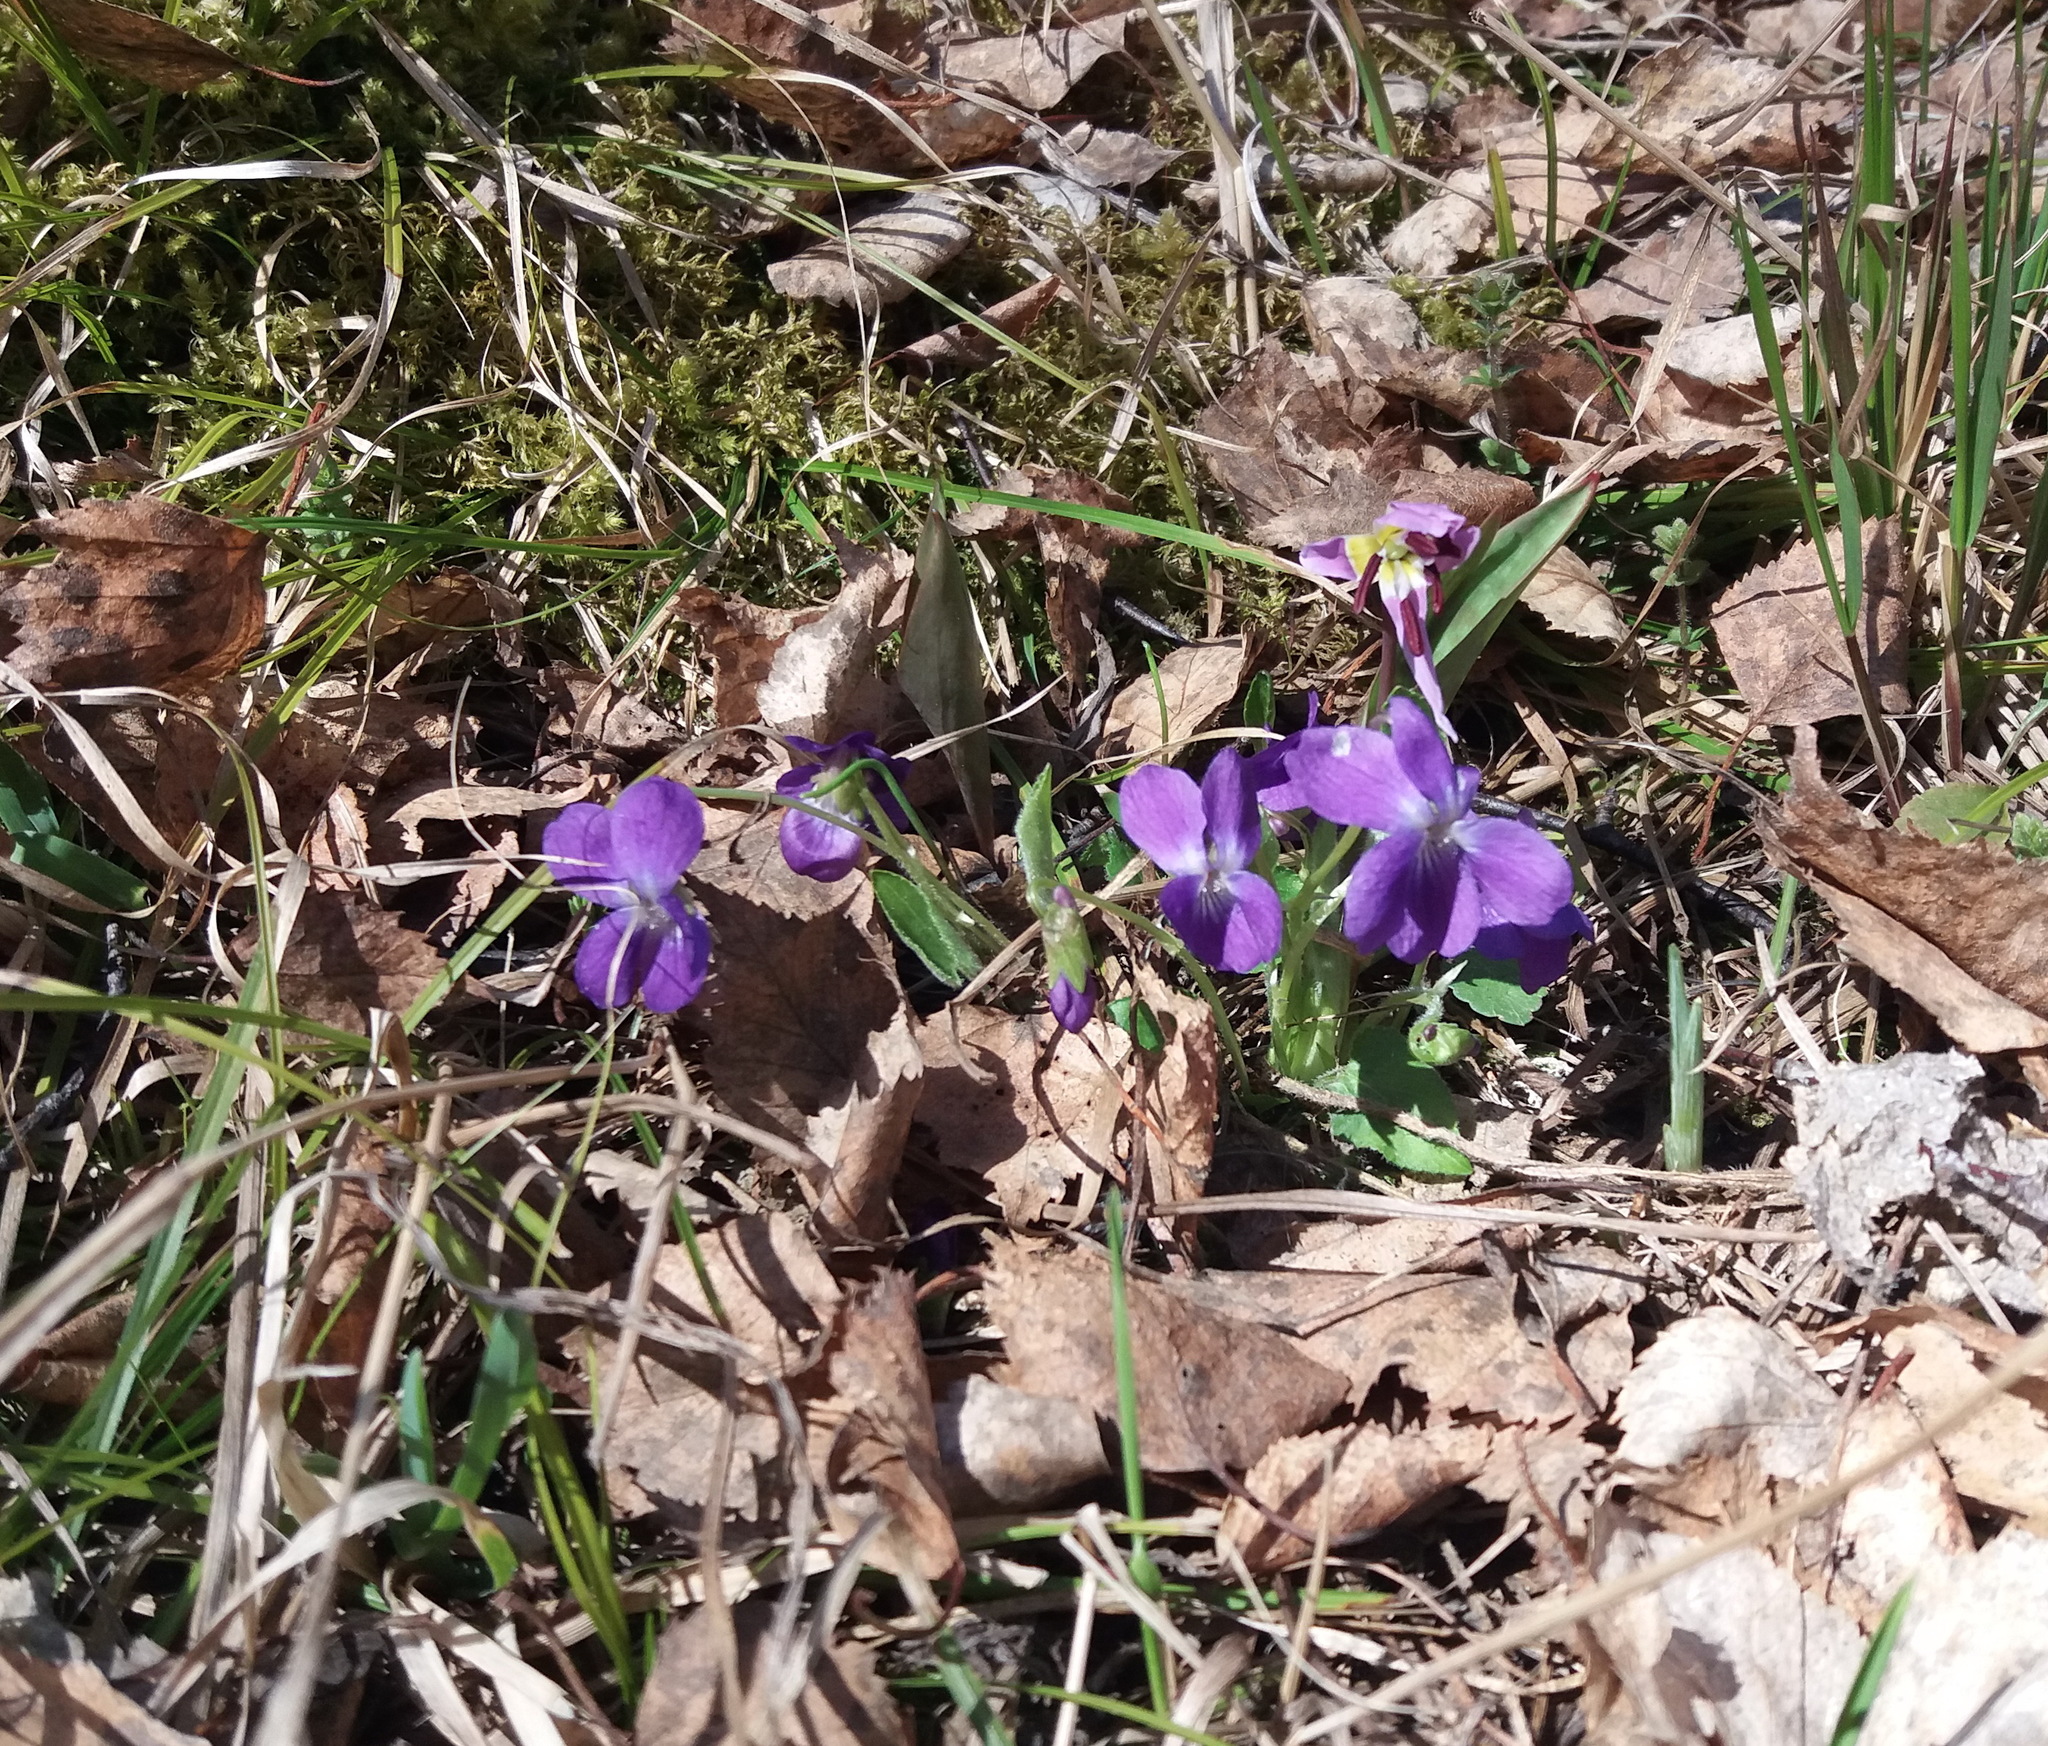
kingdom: Plantae
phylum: Tracheophyta
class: Magnoliopsida
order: Malpighiales
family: Violaceae
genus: Viola
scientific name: Viola hirta
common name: Hairy violet
